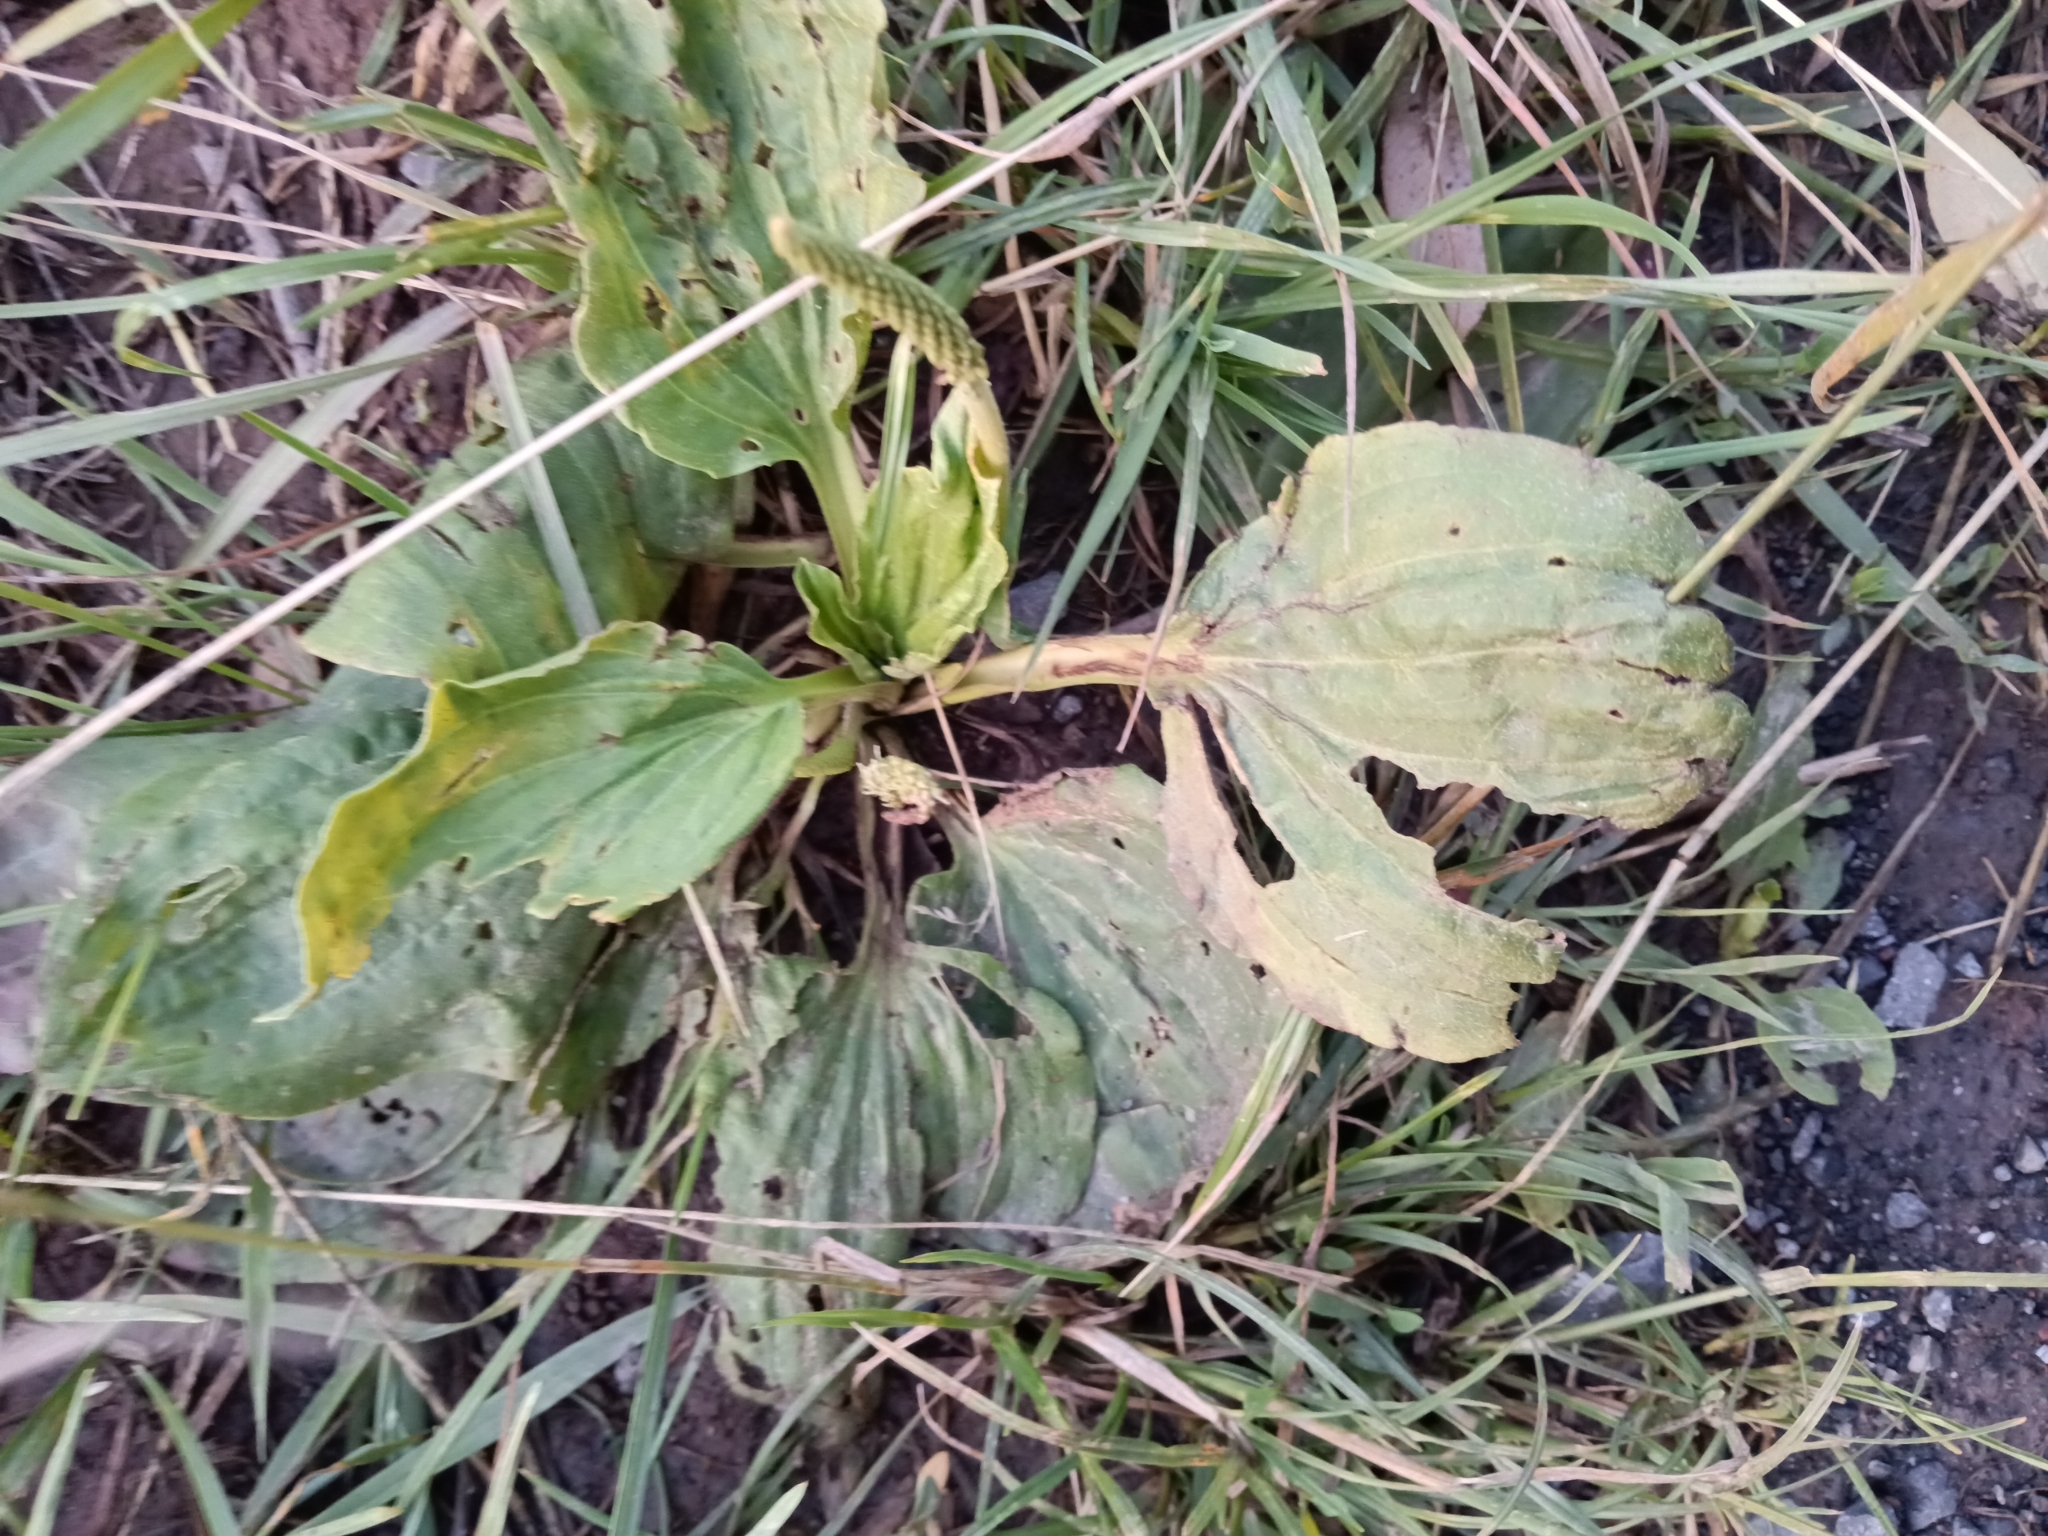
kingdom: Plantae
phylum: Tracheophyta
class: Magnoliopsida
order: Lamiales
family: Plantaginaceae
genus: Plantago
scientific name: Plantago major
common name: Common plantain
